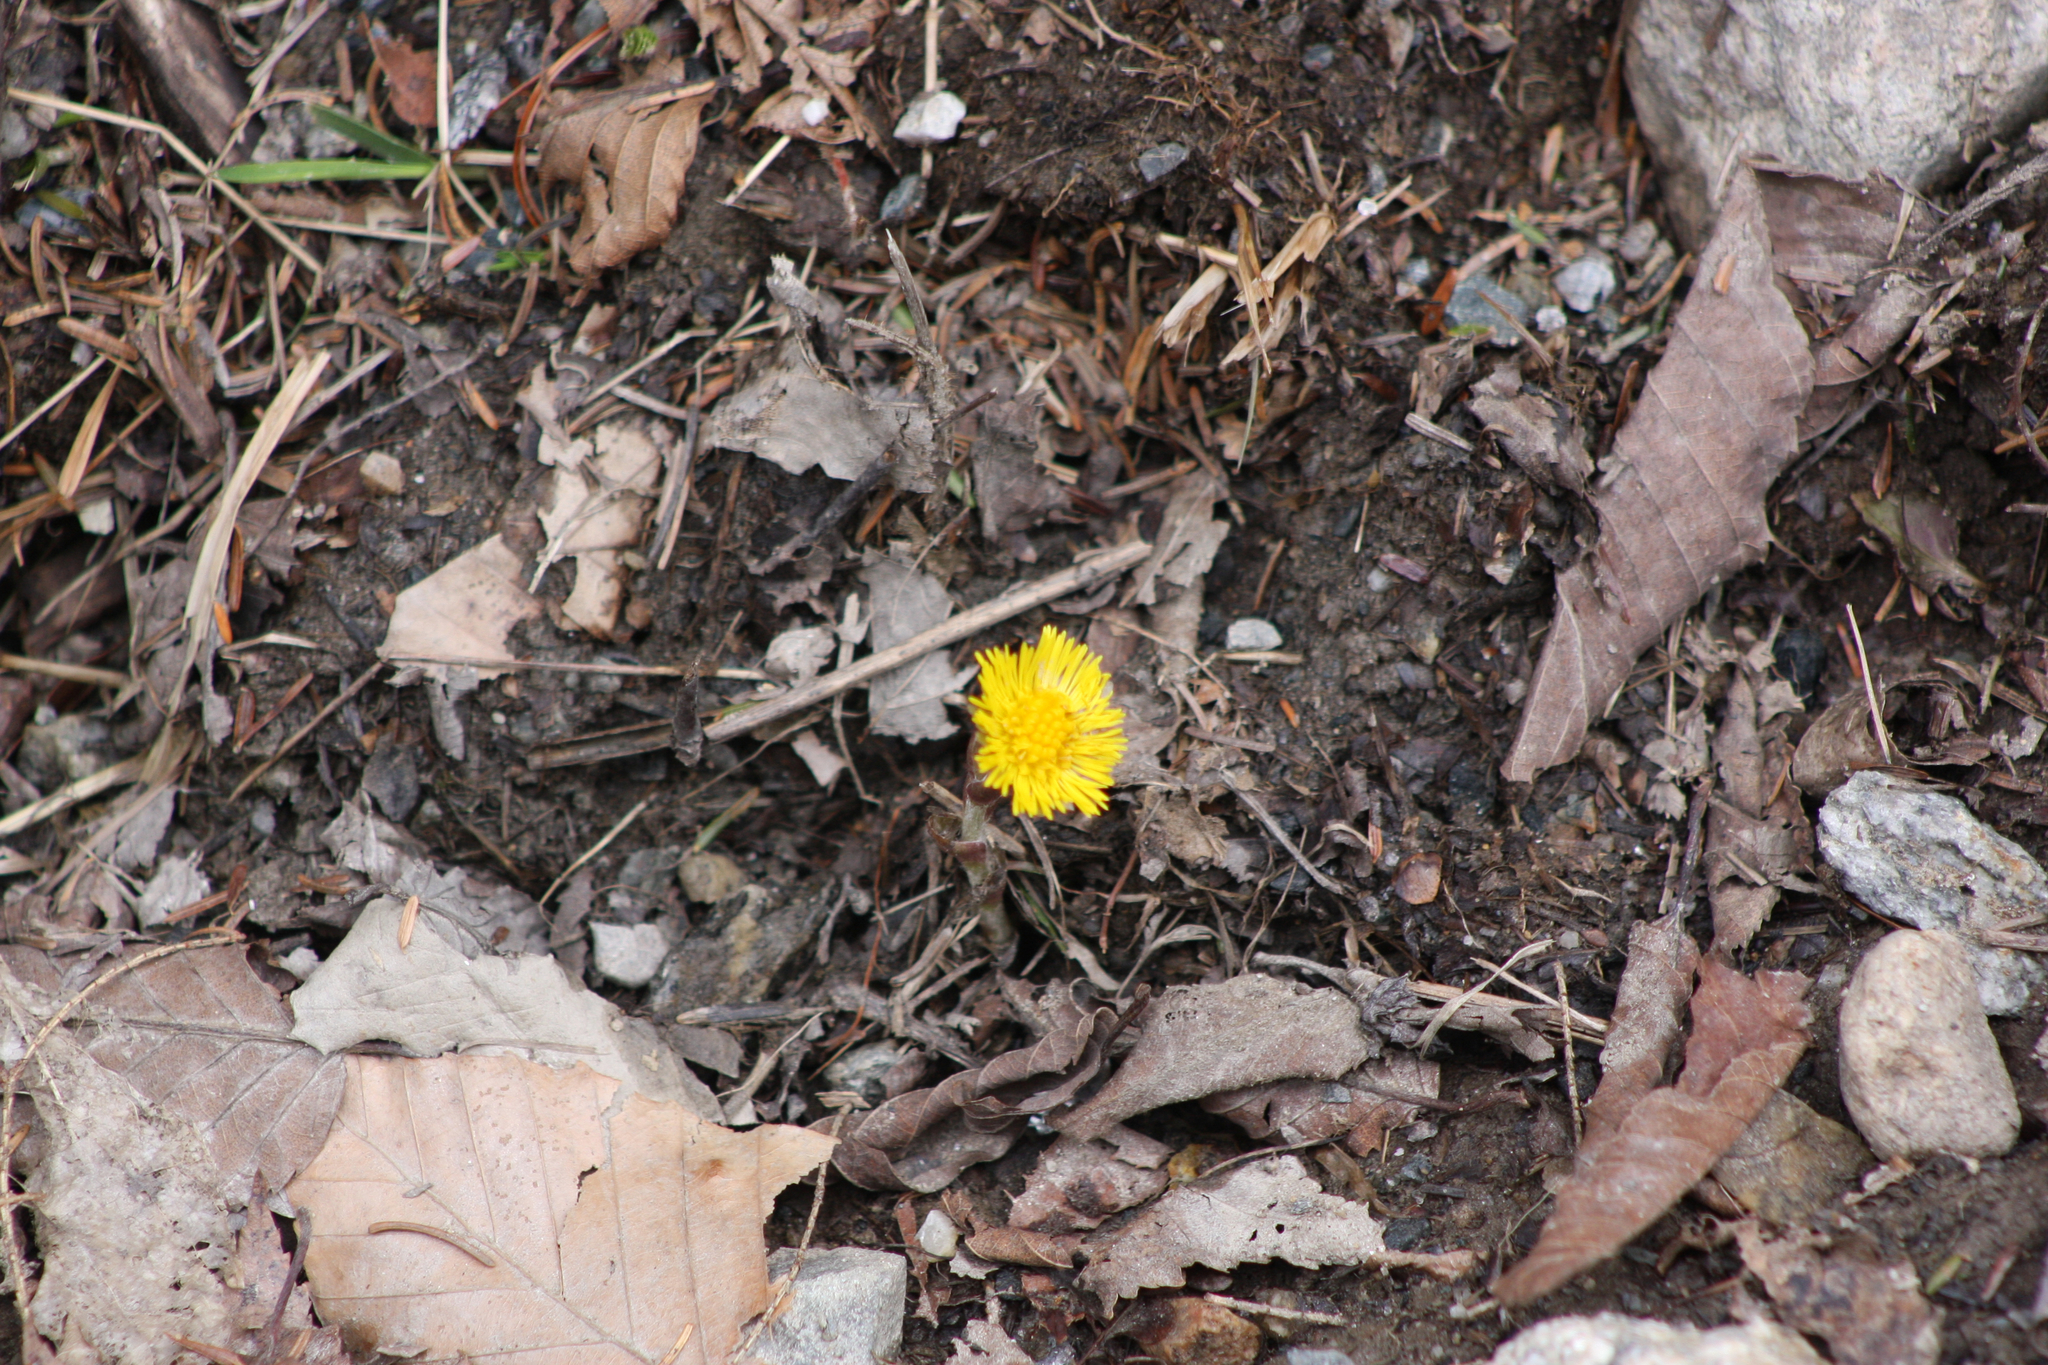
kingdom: Plantae
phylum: Tracheophyta
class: Magnoliopsida
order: Asterales
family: Asteraceae
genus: Tussilago
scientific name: Tussilago farfara
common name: Coltsfoot
